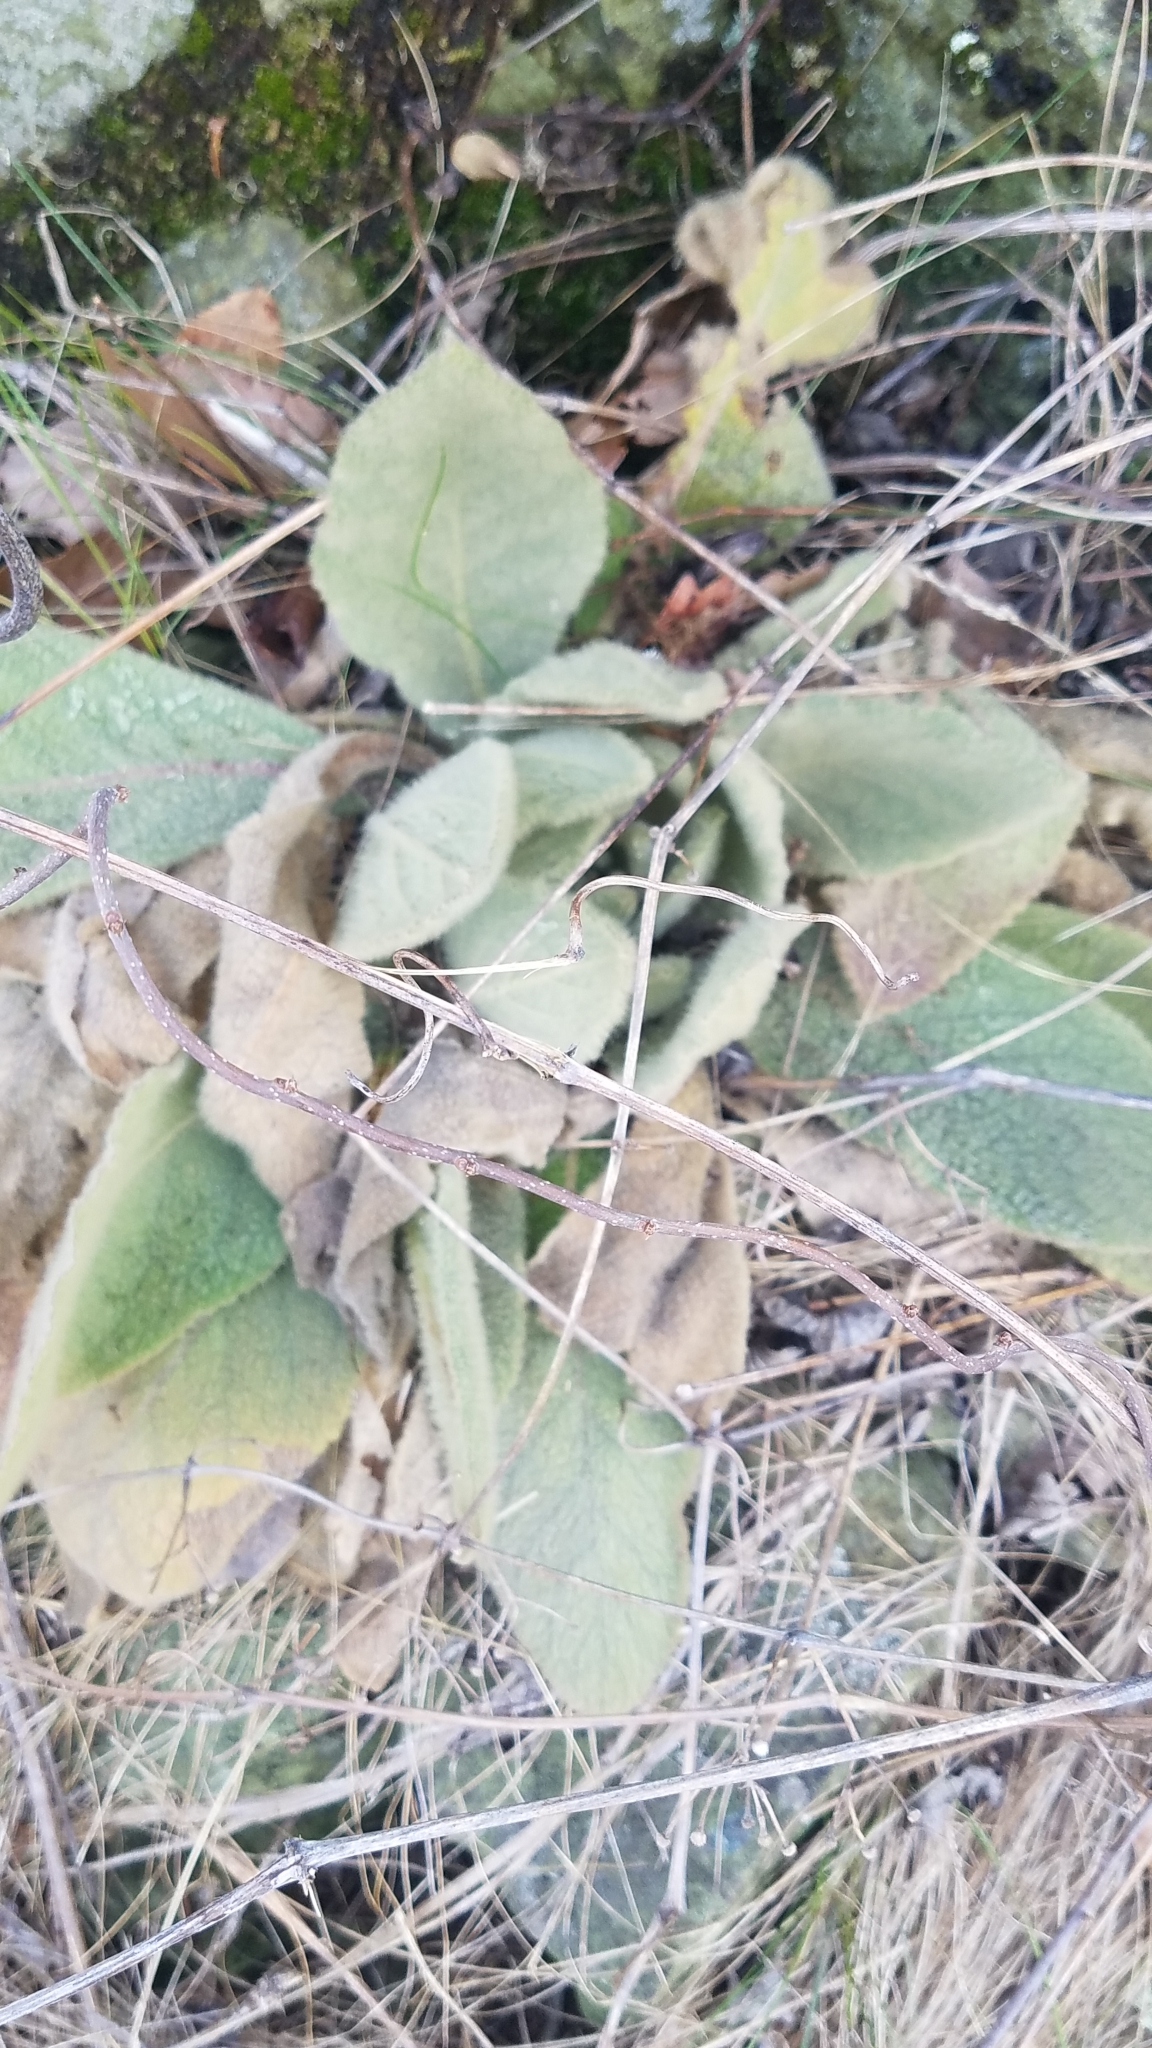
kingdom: Plantae
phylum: Tracheophyta
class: Magnoliopsida
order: Lamiales
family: Scrophulariaceae
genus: Verbascum
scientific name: Verbascum thapsus
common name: Common mullein
